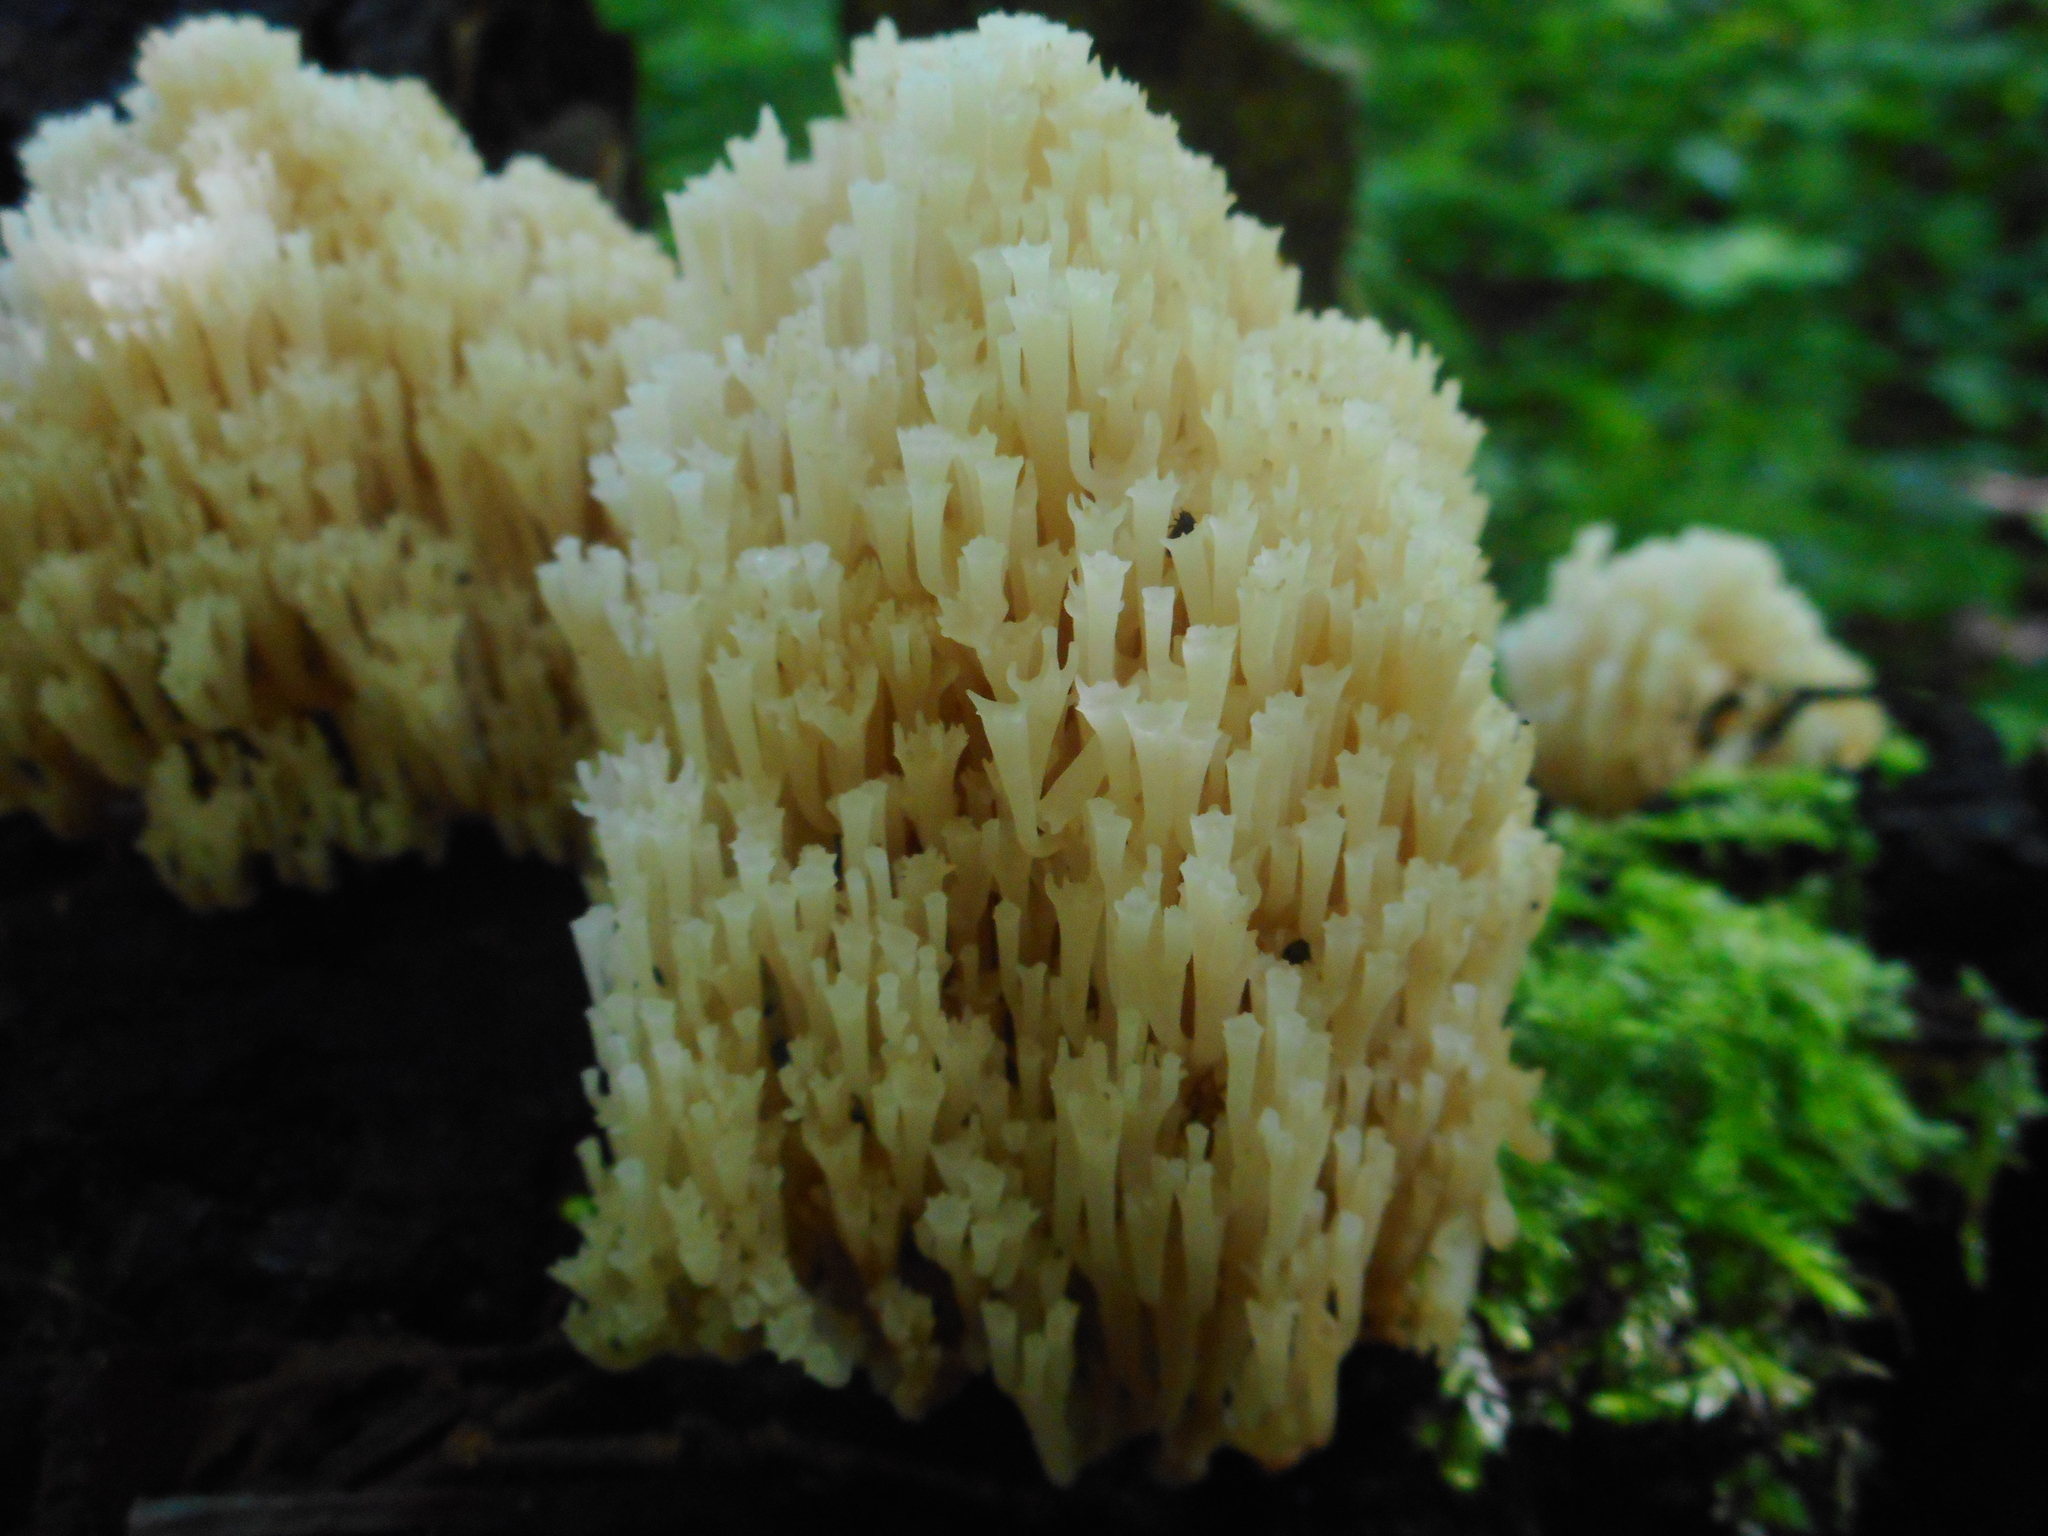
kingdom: Fungi
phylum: Basidiomycota
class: Agaricomycetes
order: Russulales
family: Auriscalpiaceae
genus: Artomyces
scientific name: Artomyces pyxidatus
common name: Crown-tipped coral fungus
